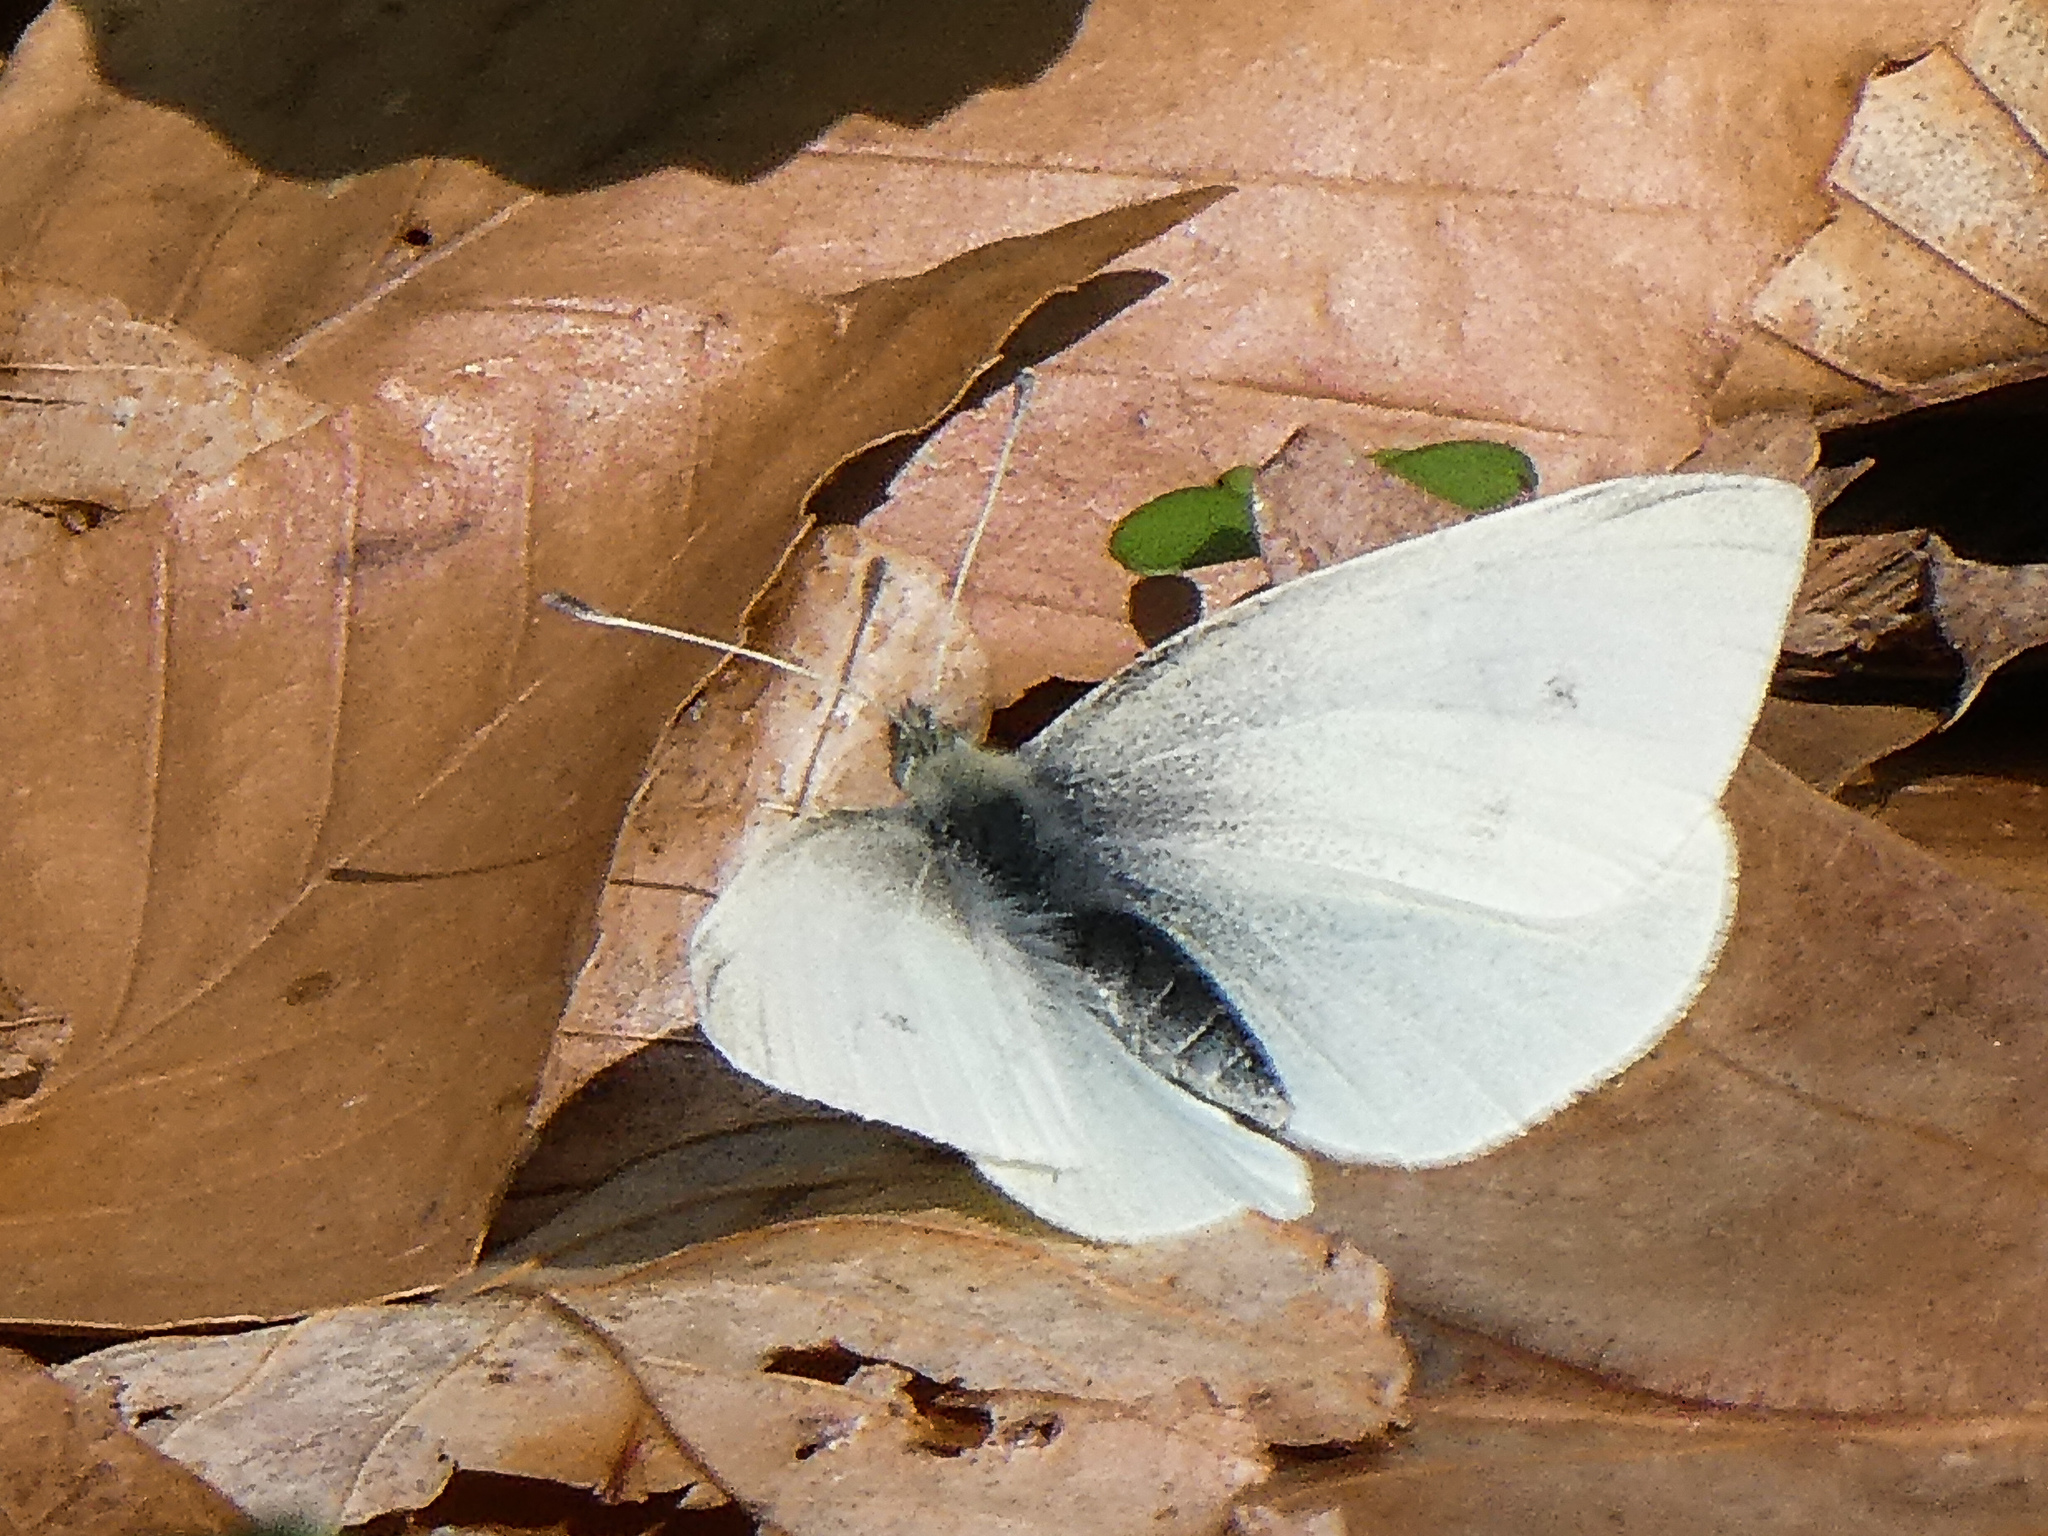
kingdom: Animalia
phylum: Arthropoda
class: Insecta
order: Lepidoptera
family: Pieridae
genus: Pieris
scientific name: Pieris rapae
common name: Small white
